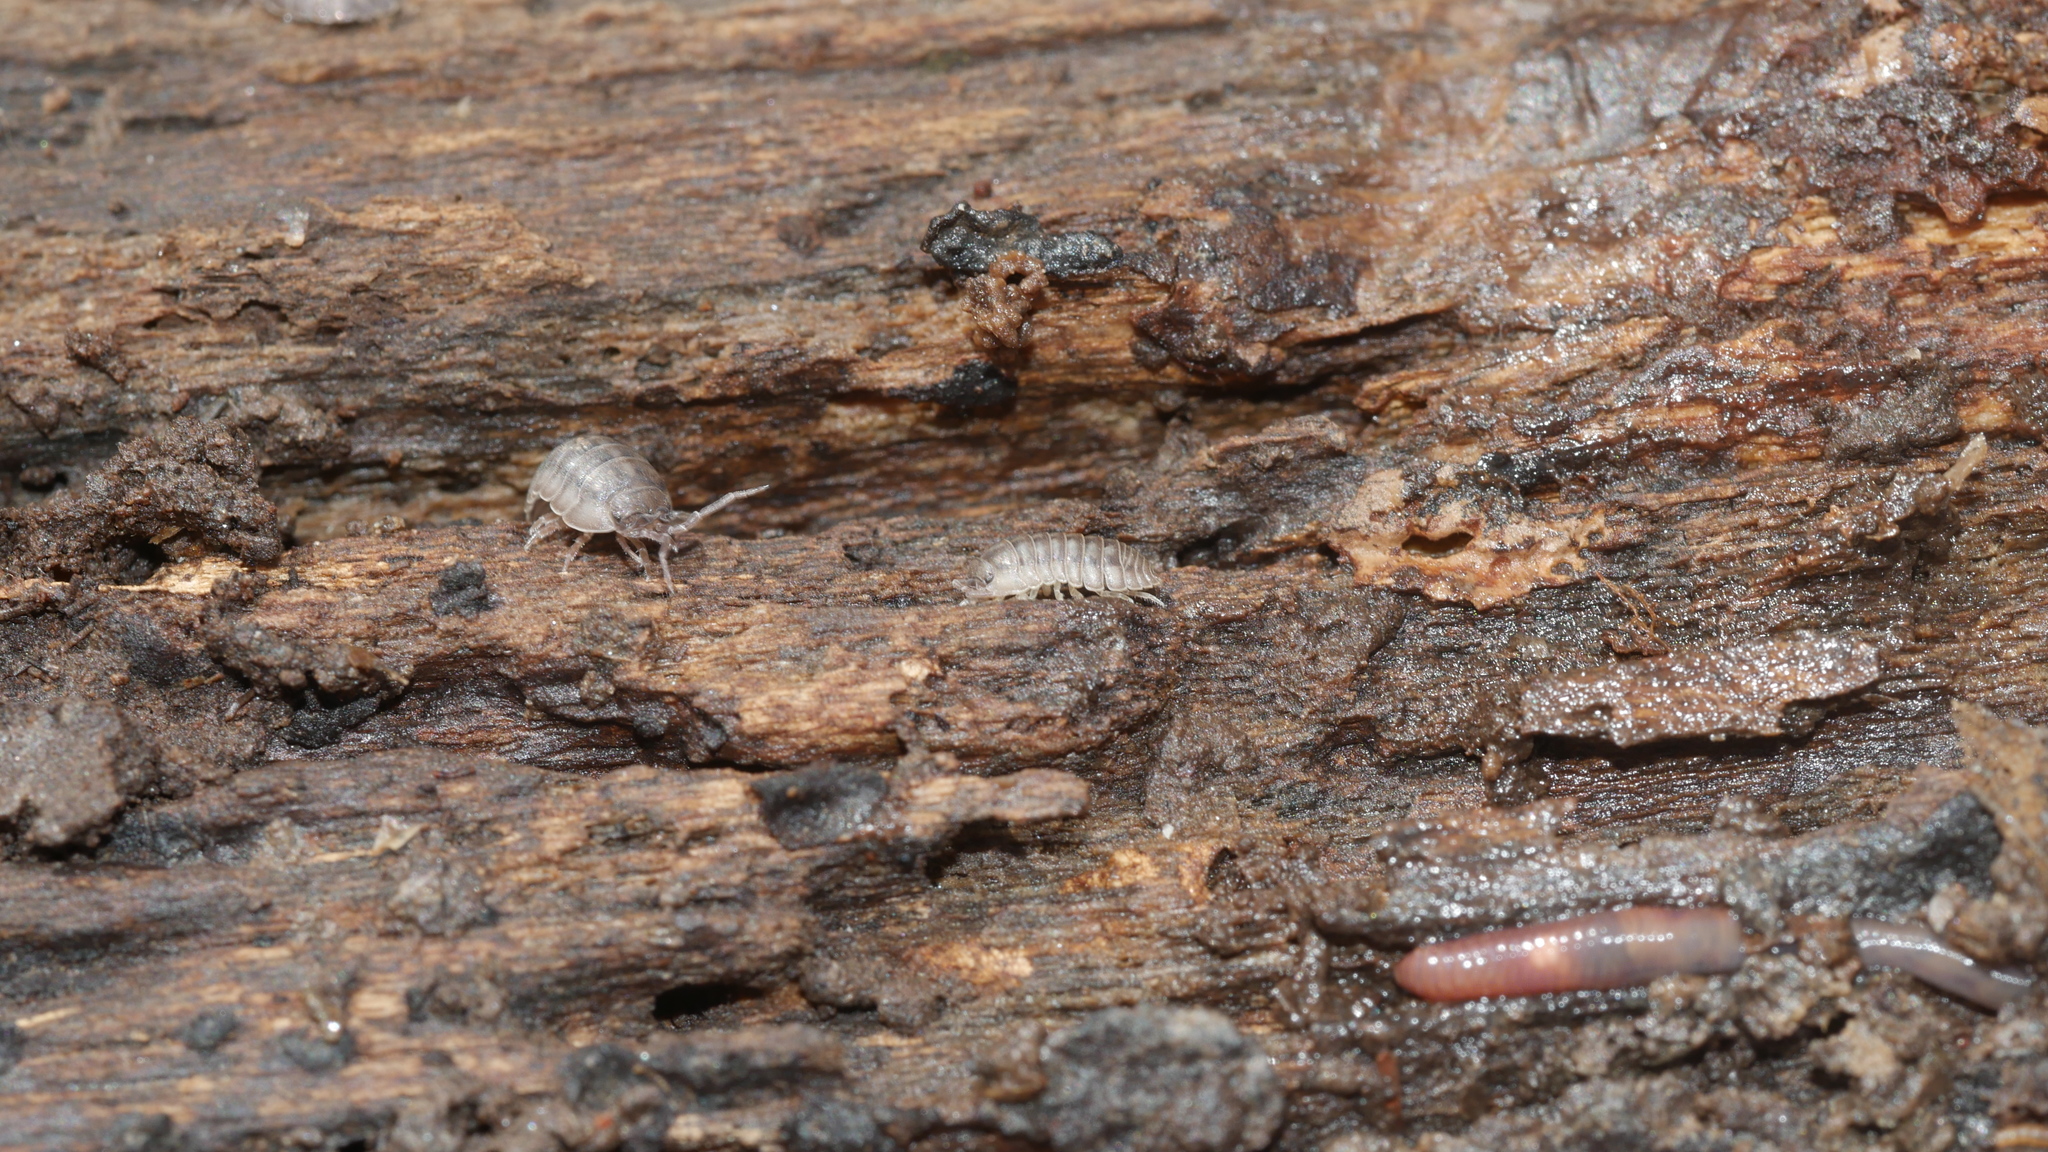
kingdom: Animalia
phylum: Arthropoda
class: Malacostraca
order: Isopoda
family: Armadillidiidae
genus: Armadillidium
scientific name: Armadillidium nasatum
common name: Isopod
